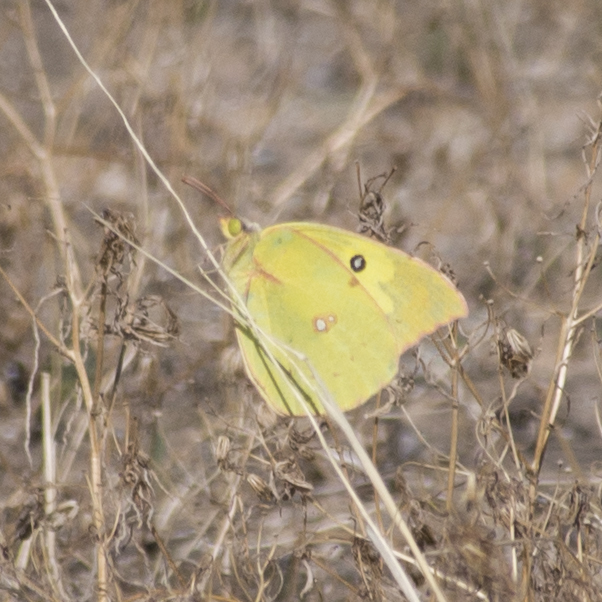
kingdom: Animalia
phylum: Arthropoda
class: Insecta
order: Lepidoptera
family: Pieridae
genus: Zerene
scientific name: Zerene cesonia
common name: Southern dogface
